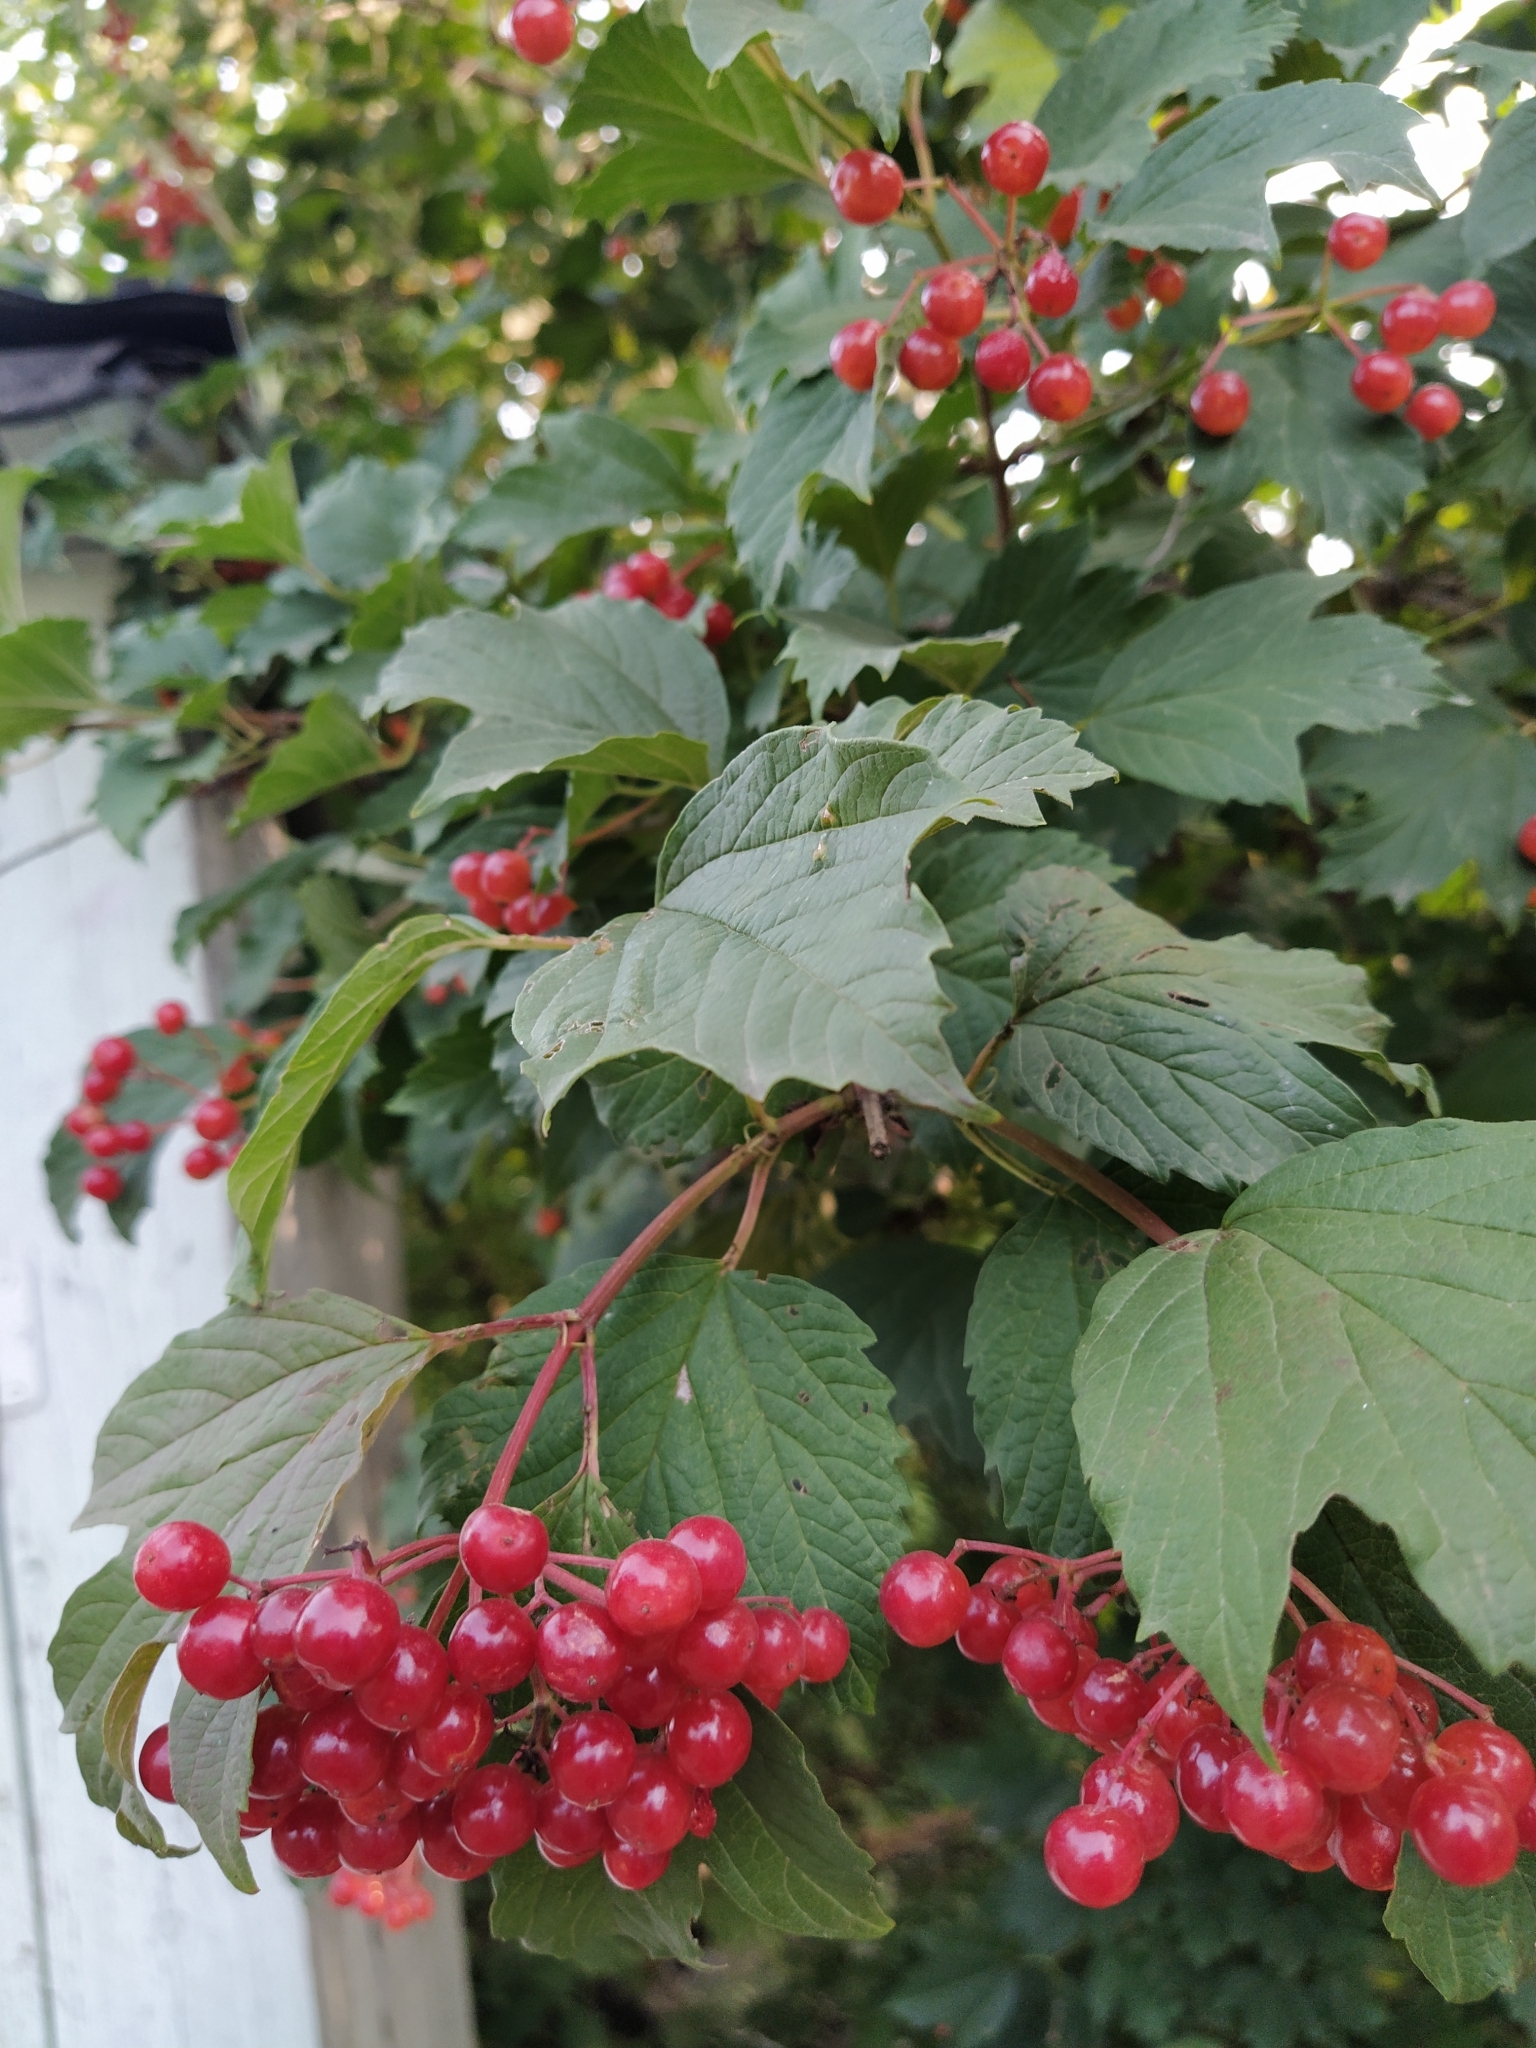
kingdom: Plantae
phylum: Tracheophyta
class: Magnoliopsida
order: Dipsacales
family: Viburnaceae
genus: Viburnum
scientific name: Viburnum opulus
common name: Guelder-rose
